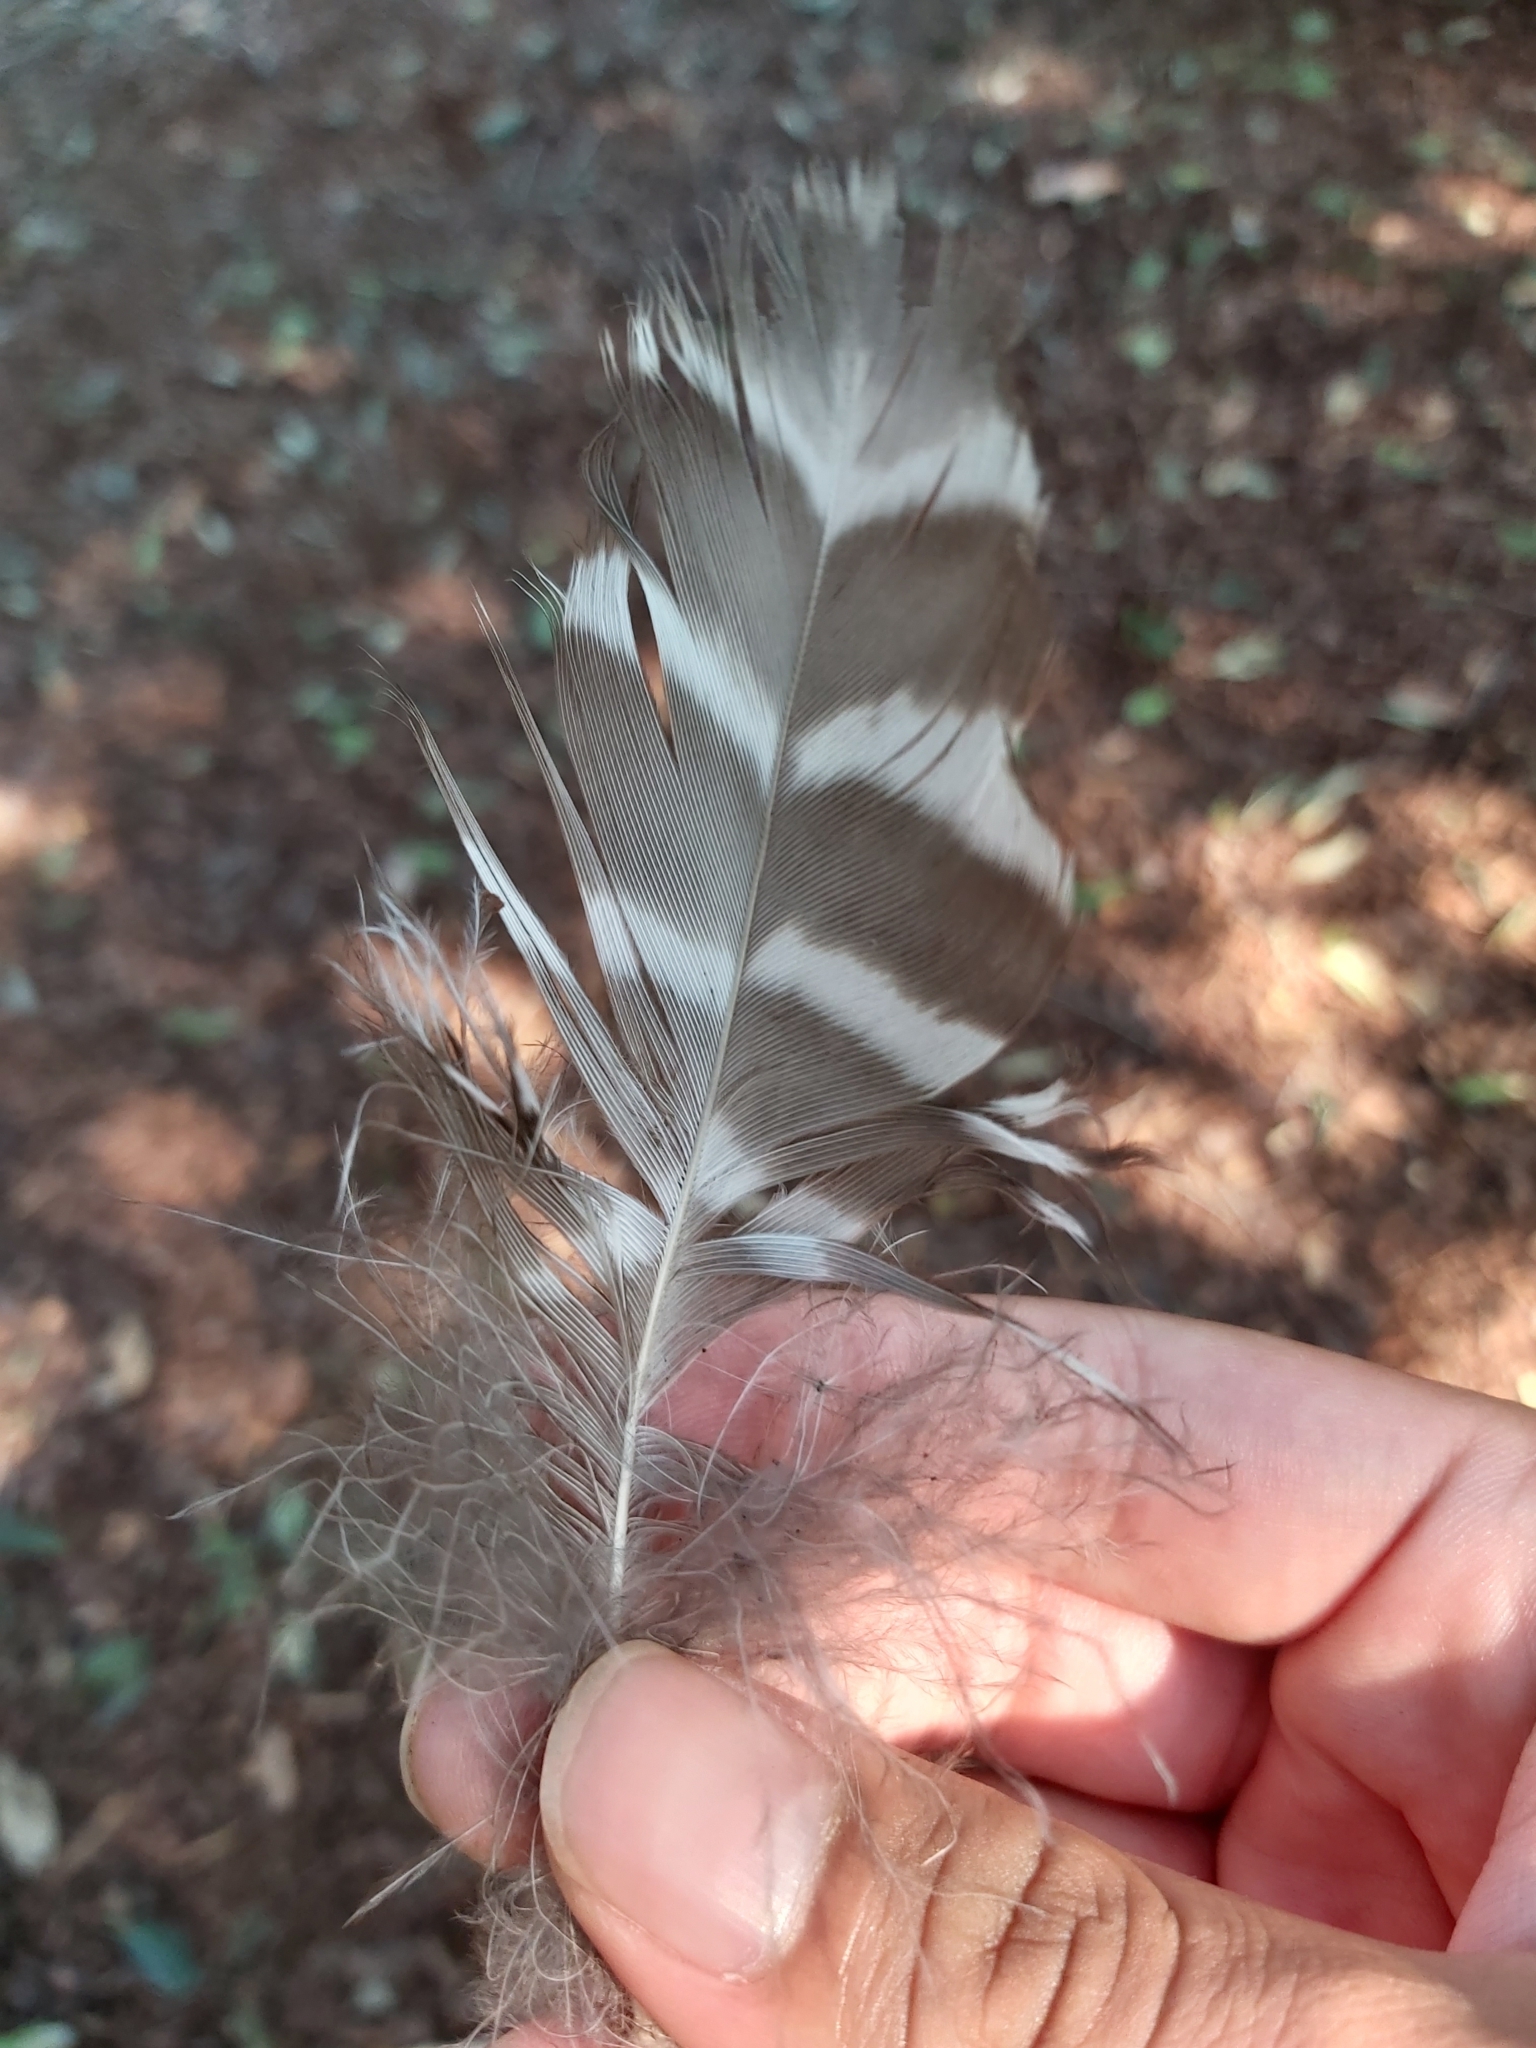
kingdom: Animalia
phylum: Chordata
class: Aves
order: Strigiformes
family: Strigidae
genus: Ninox
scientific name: Ninox strenua
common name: Powerful owl
